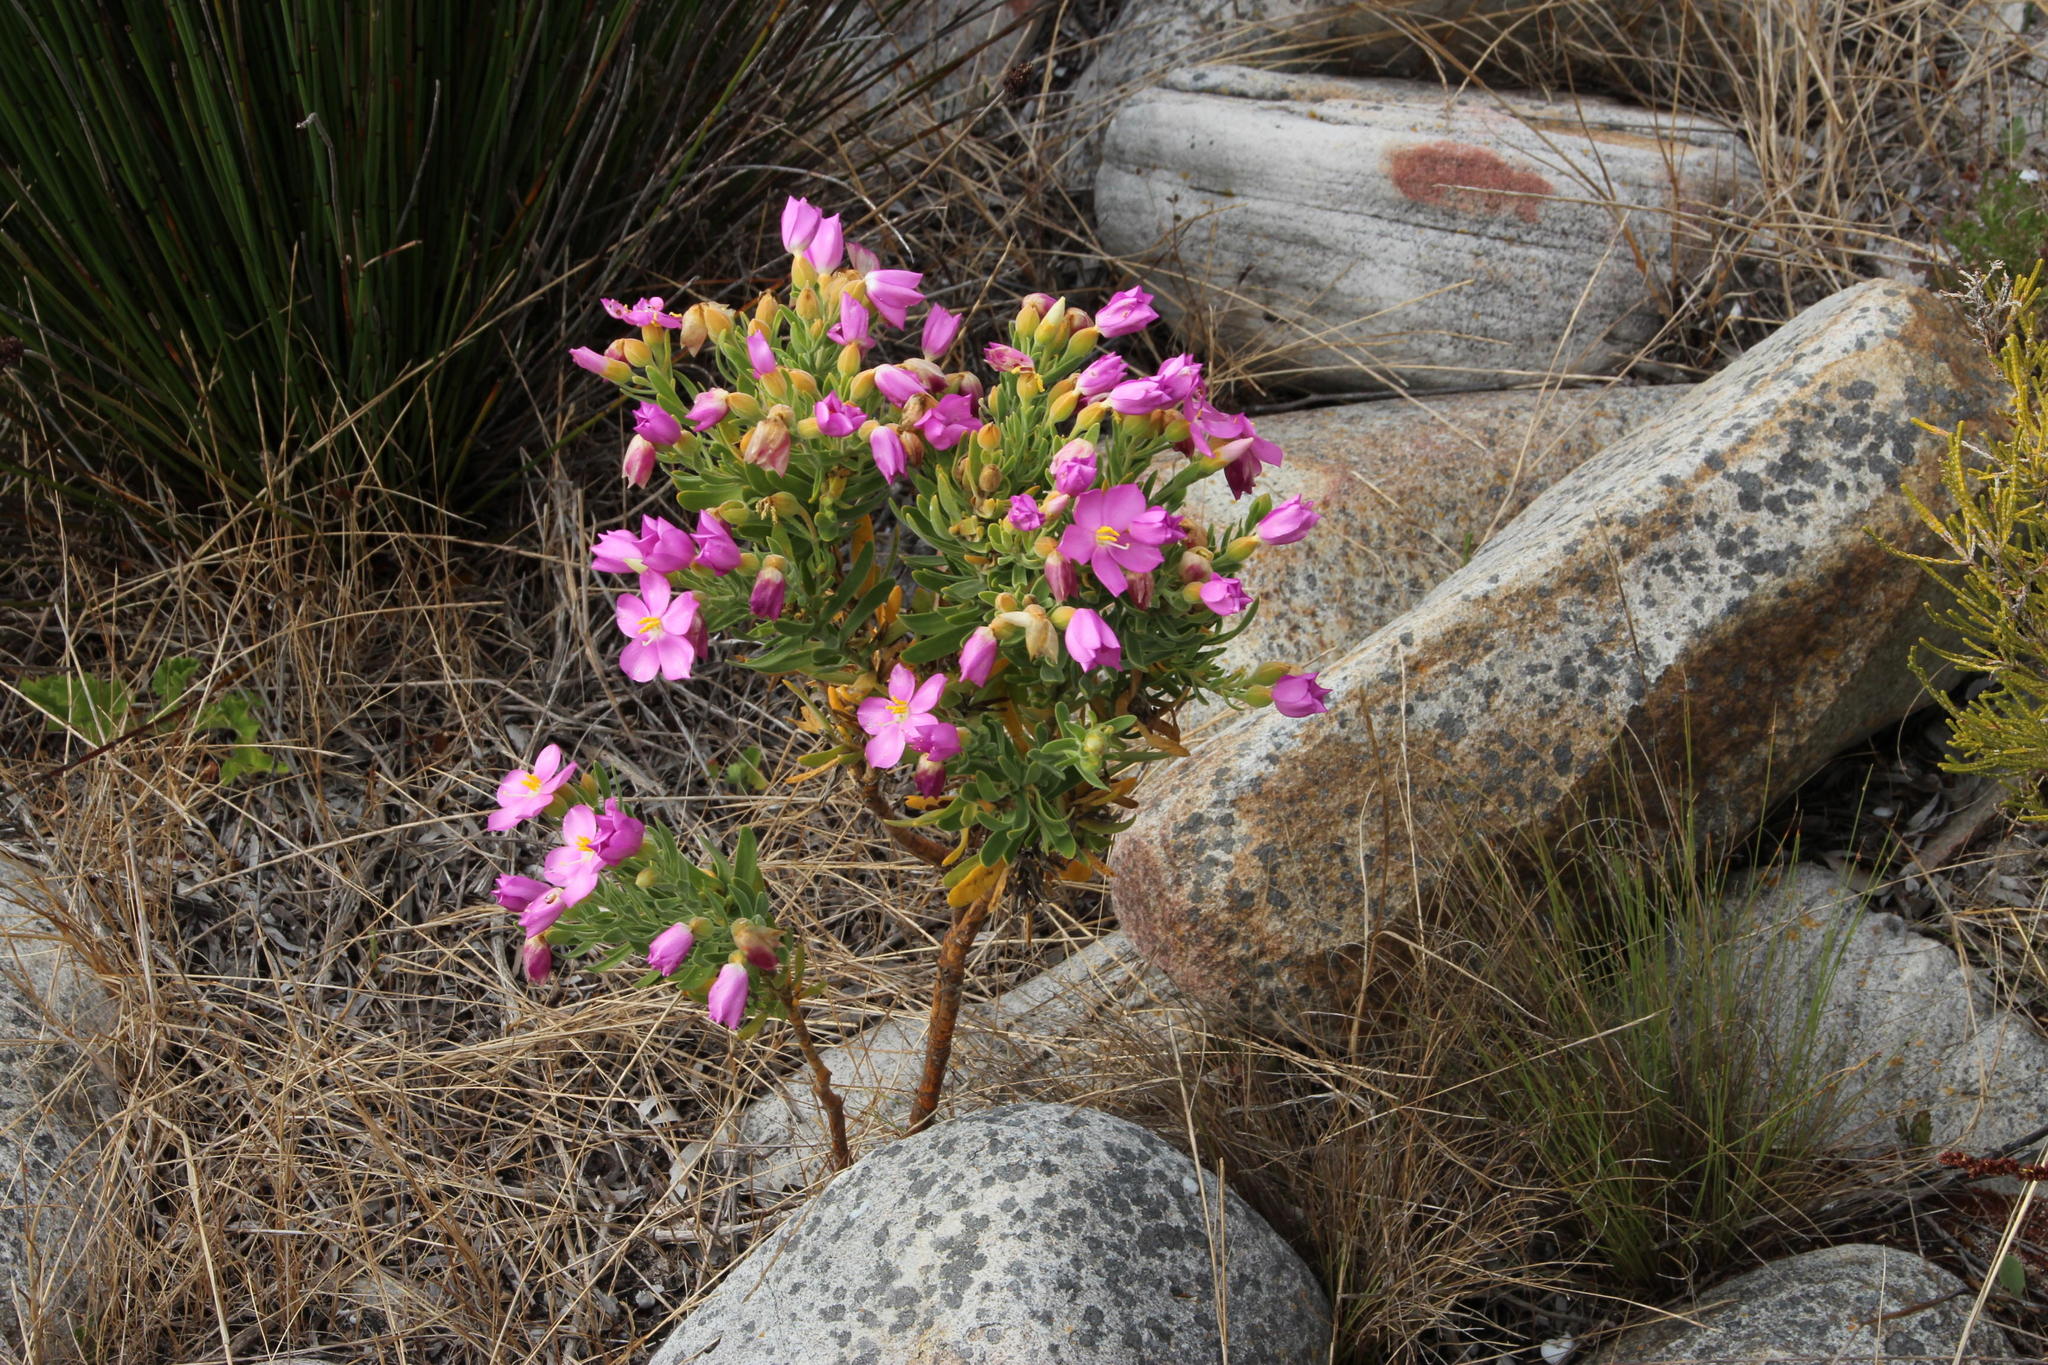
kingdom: Plantae
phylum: Tracheophyta
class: Magnoliopsida
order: Gentianales
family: Gentianaceae
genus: Orphium
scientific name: Orphium frutescens
